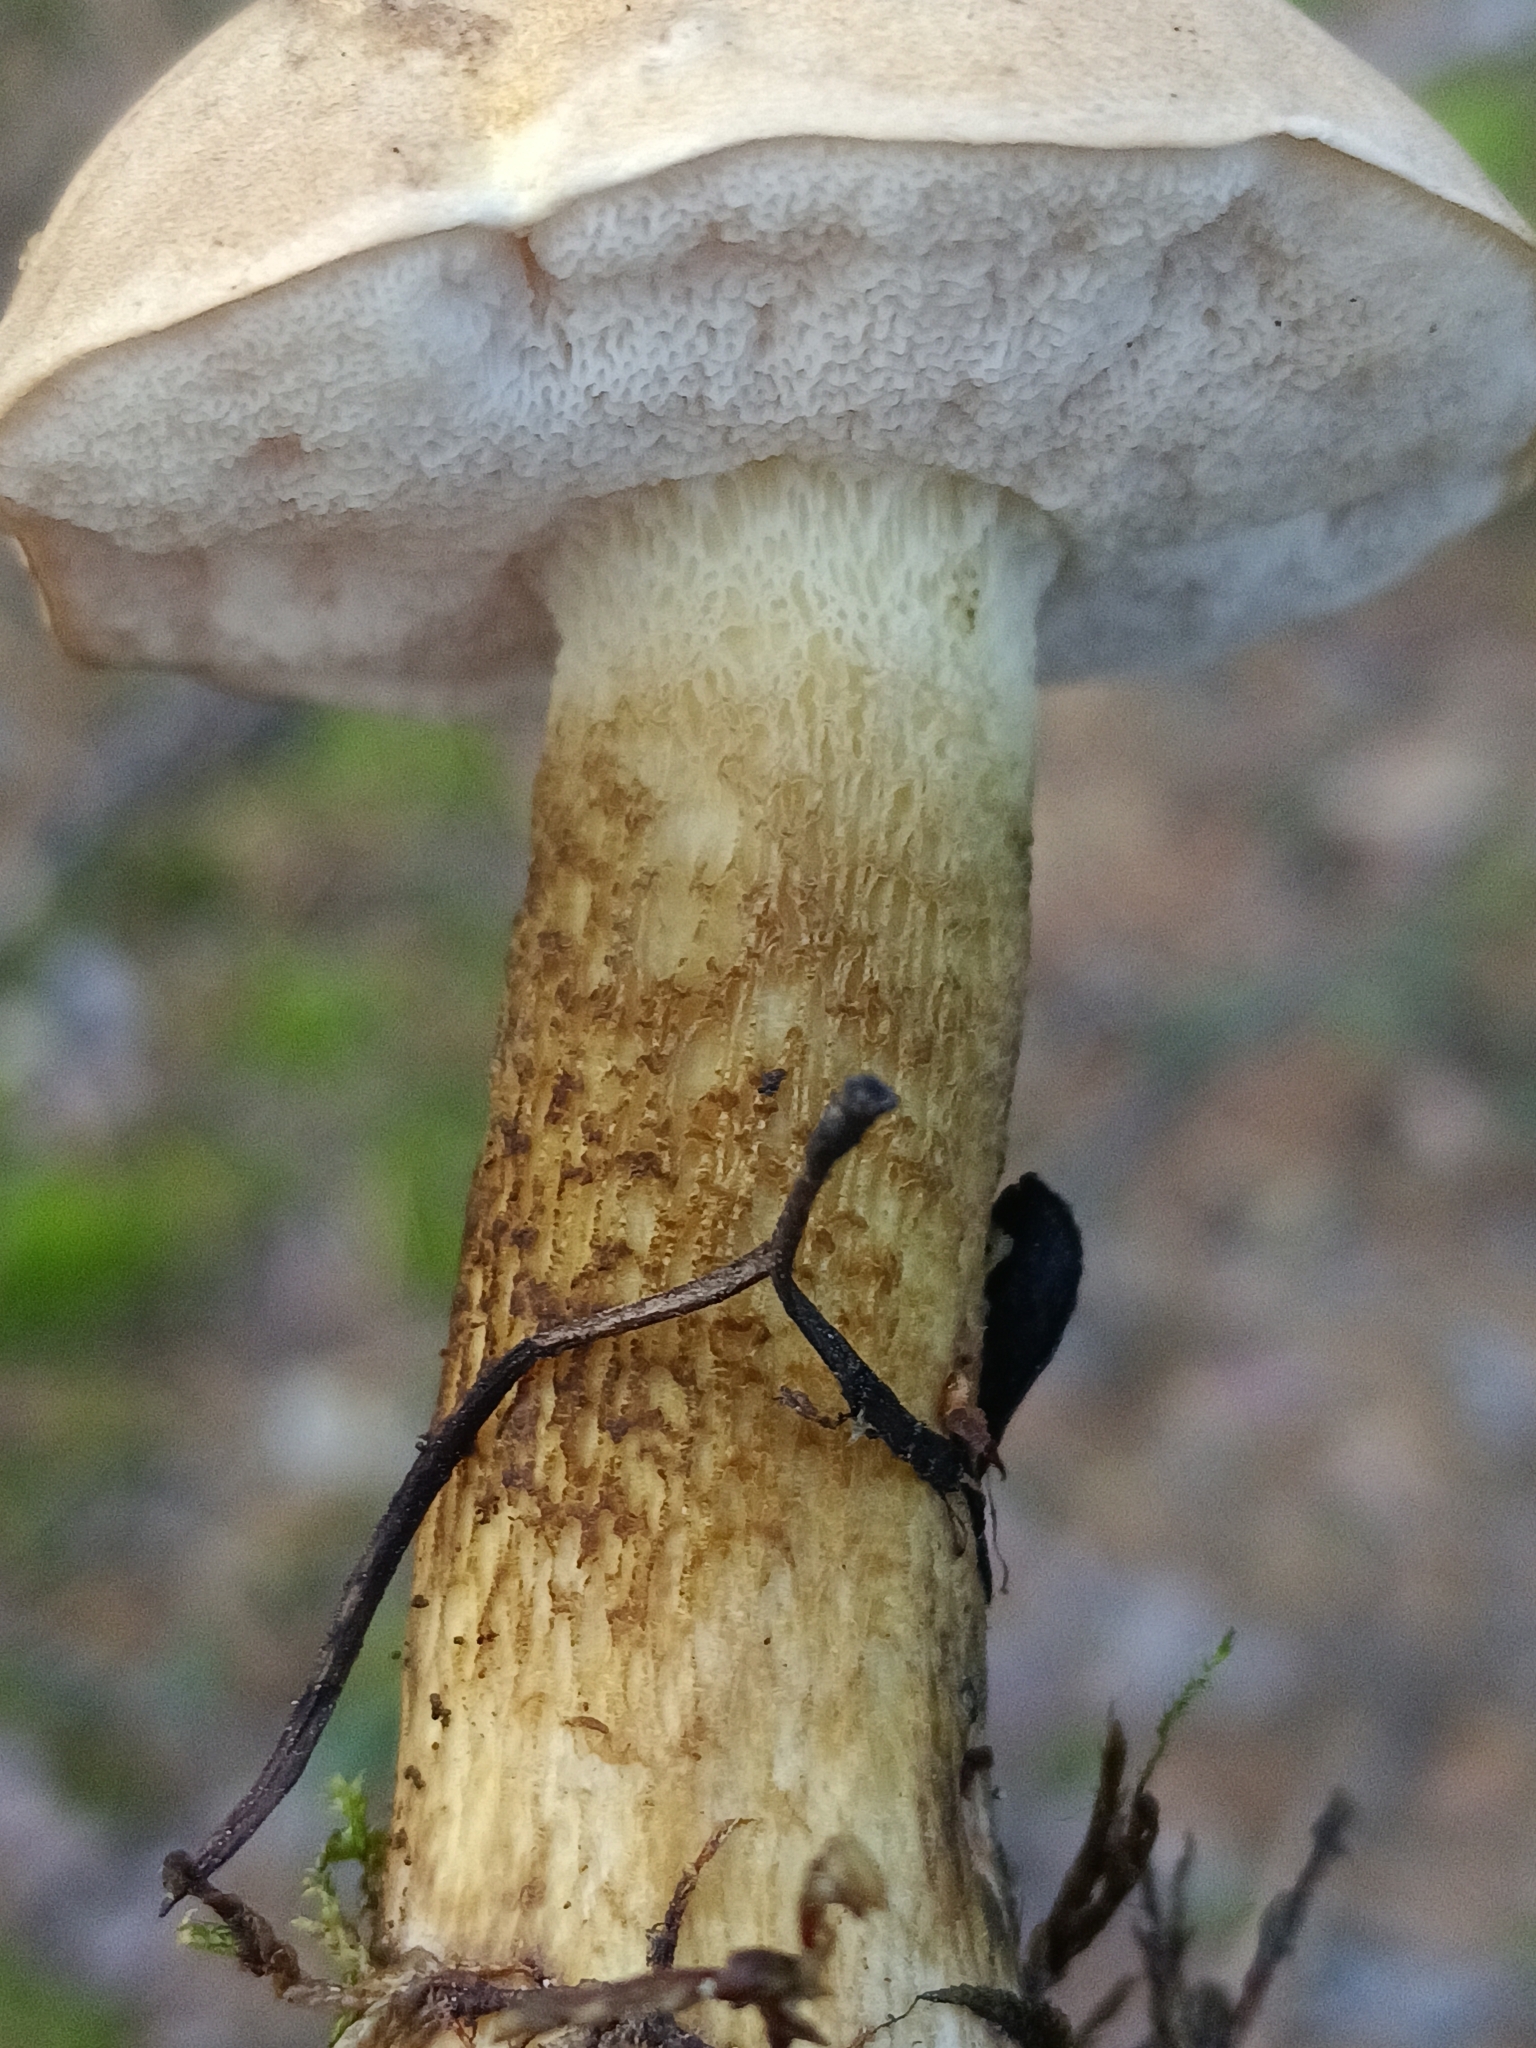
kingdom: Fungi
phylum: Basidiomycota
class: Agaricomycetes
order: Boletales
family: Boletaceae
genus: Tylopilus
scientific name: Tylopilus felleus
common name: Bitter bolete
